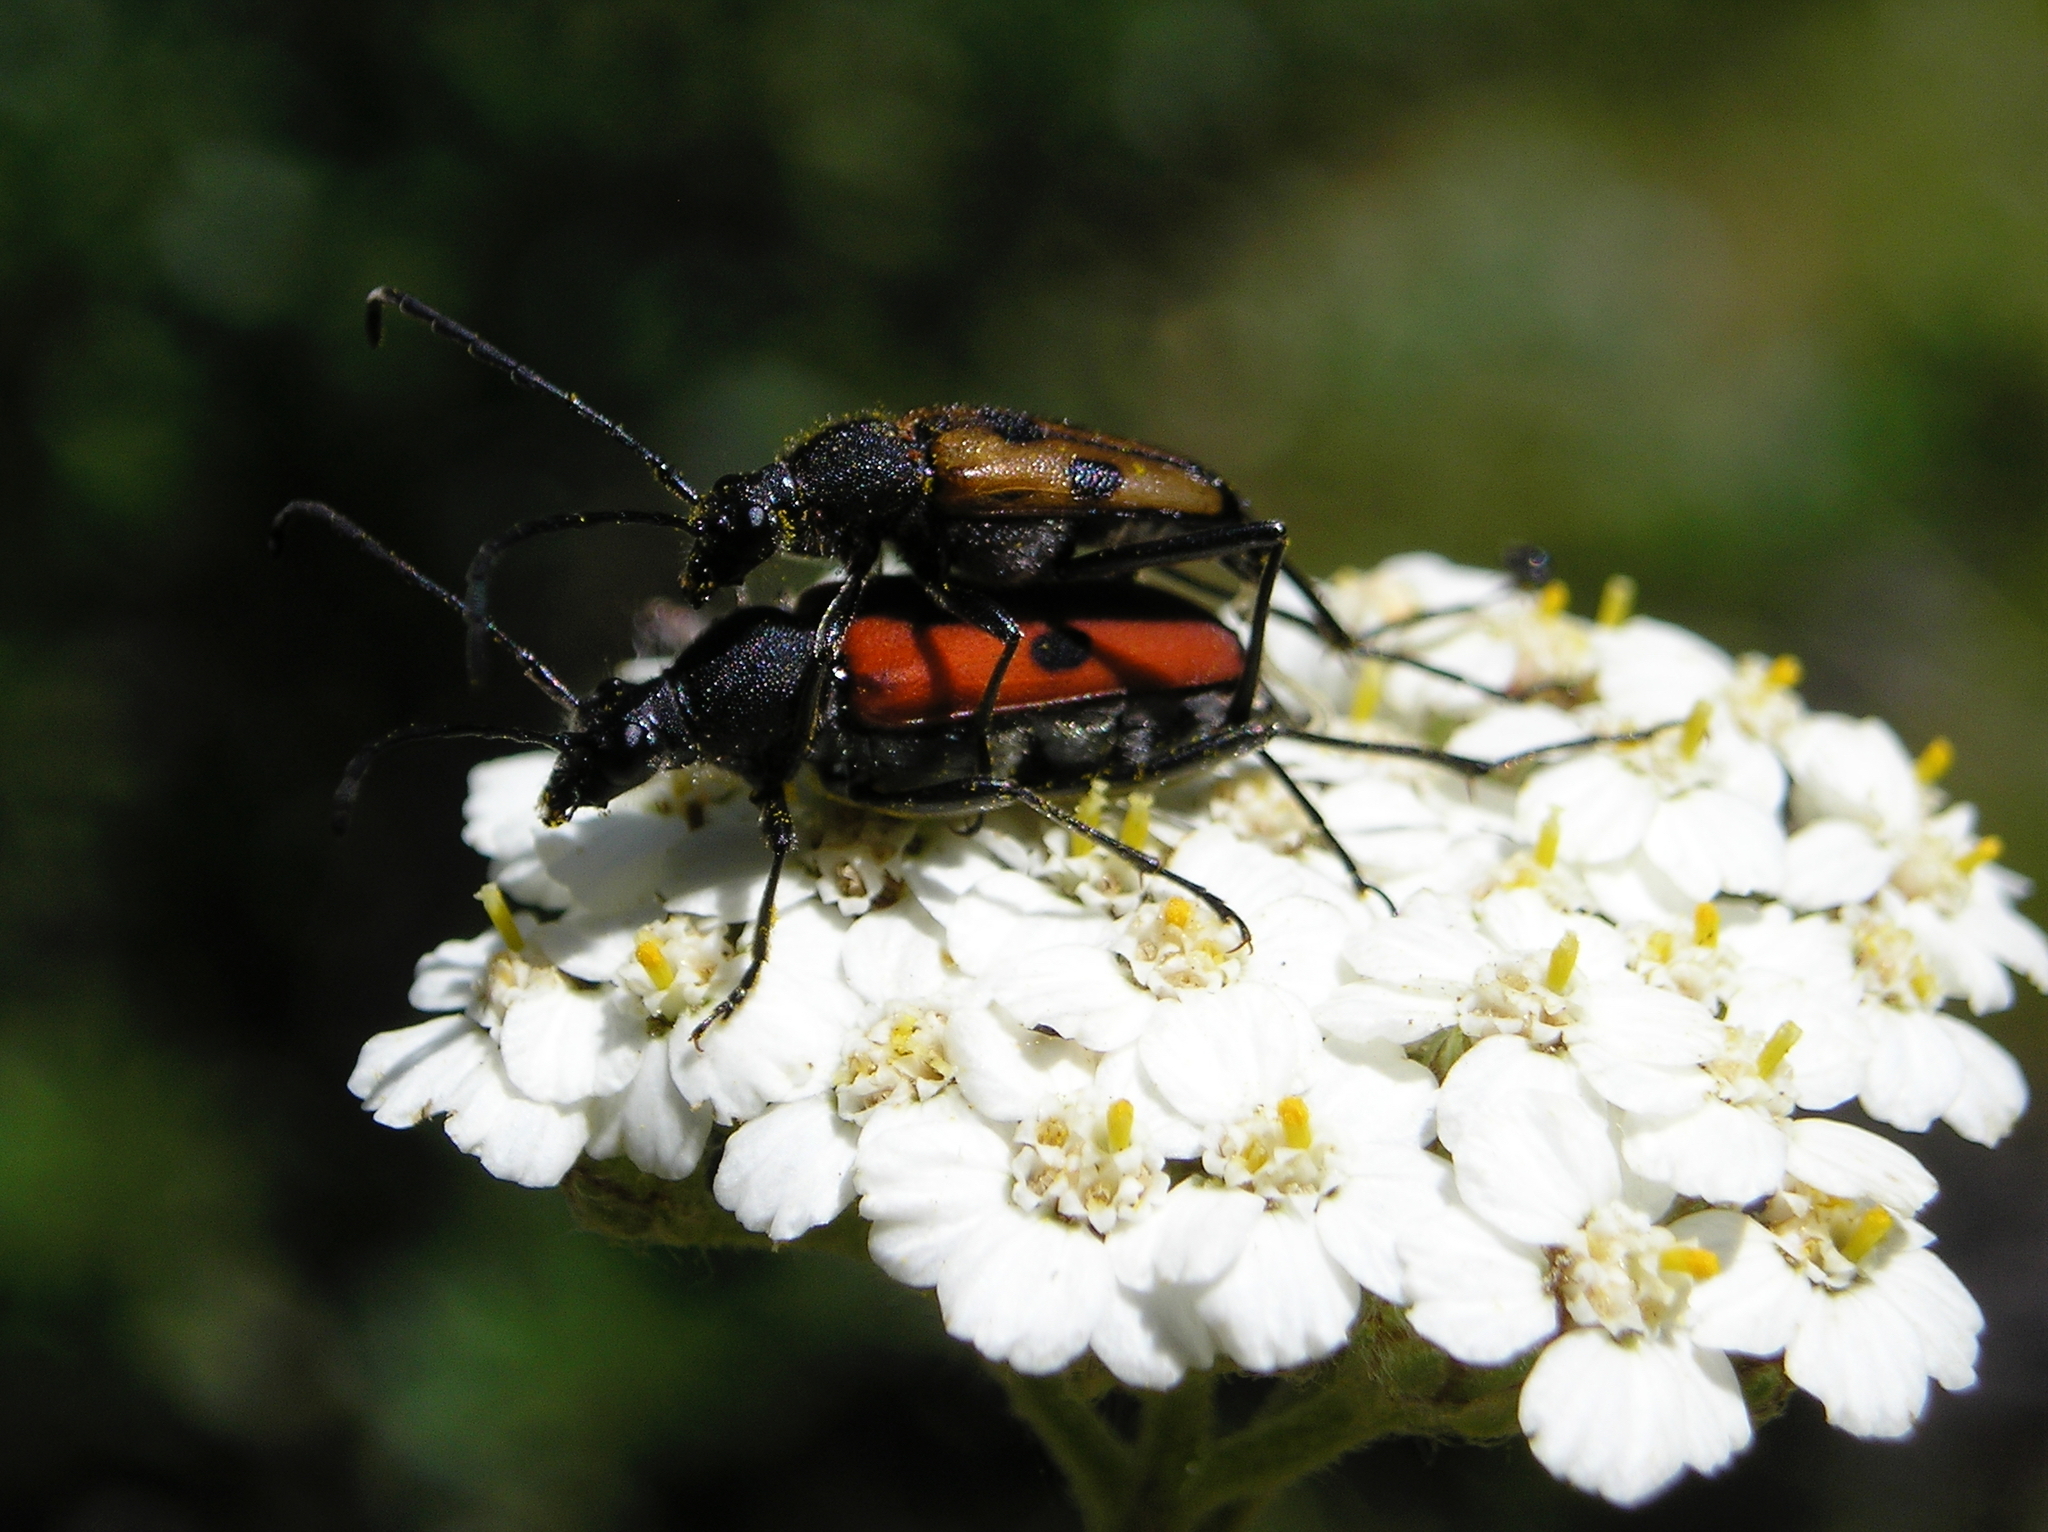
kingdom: Animalia
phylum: Arthropoda
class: Insecta
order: Coleoptera
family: Cerambycidae
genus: Anastrangalia
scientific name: Anastrangalia laetifica
